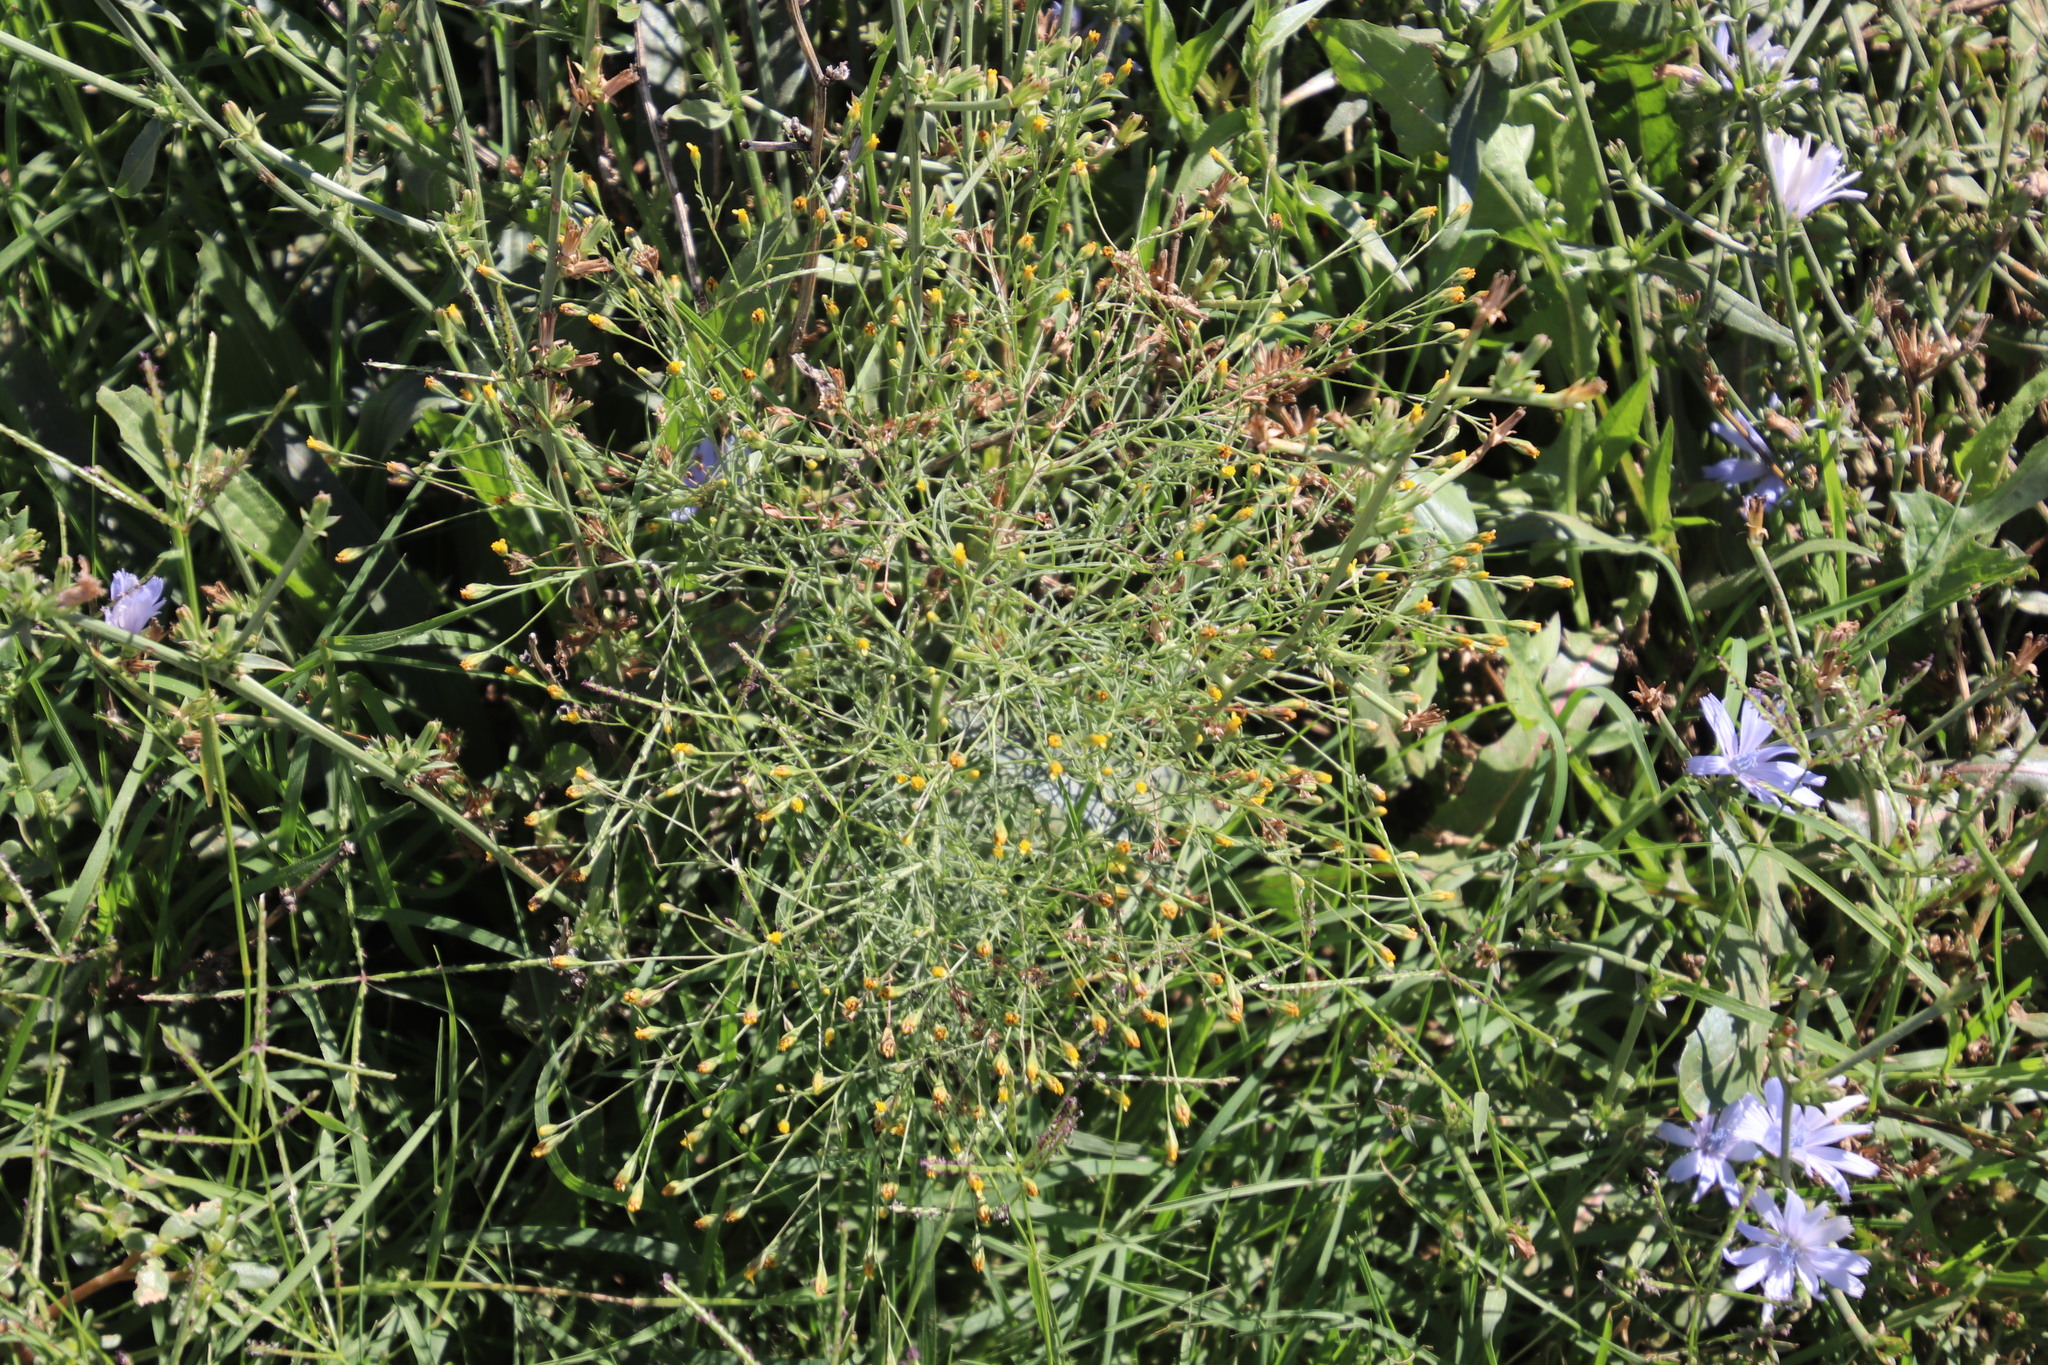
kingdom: Plantae
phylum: Tracheophyta
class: Magnoliopsida
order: Asterales
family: Asteraceae
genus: Schkuhria
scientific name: Schkuhria pinnata
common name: Dwarf marigold
